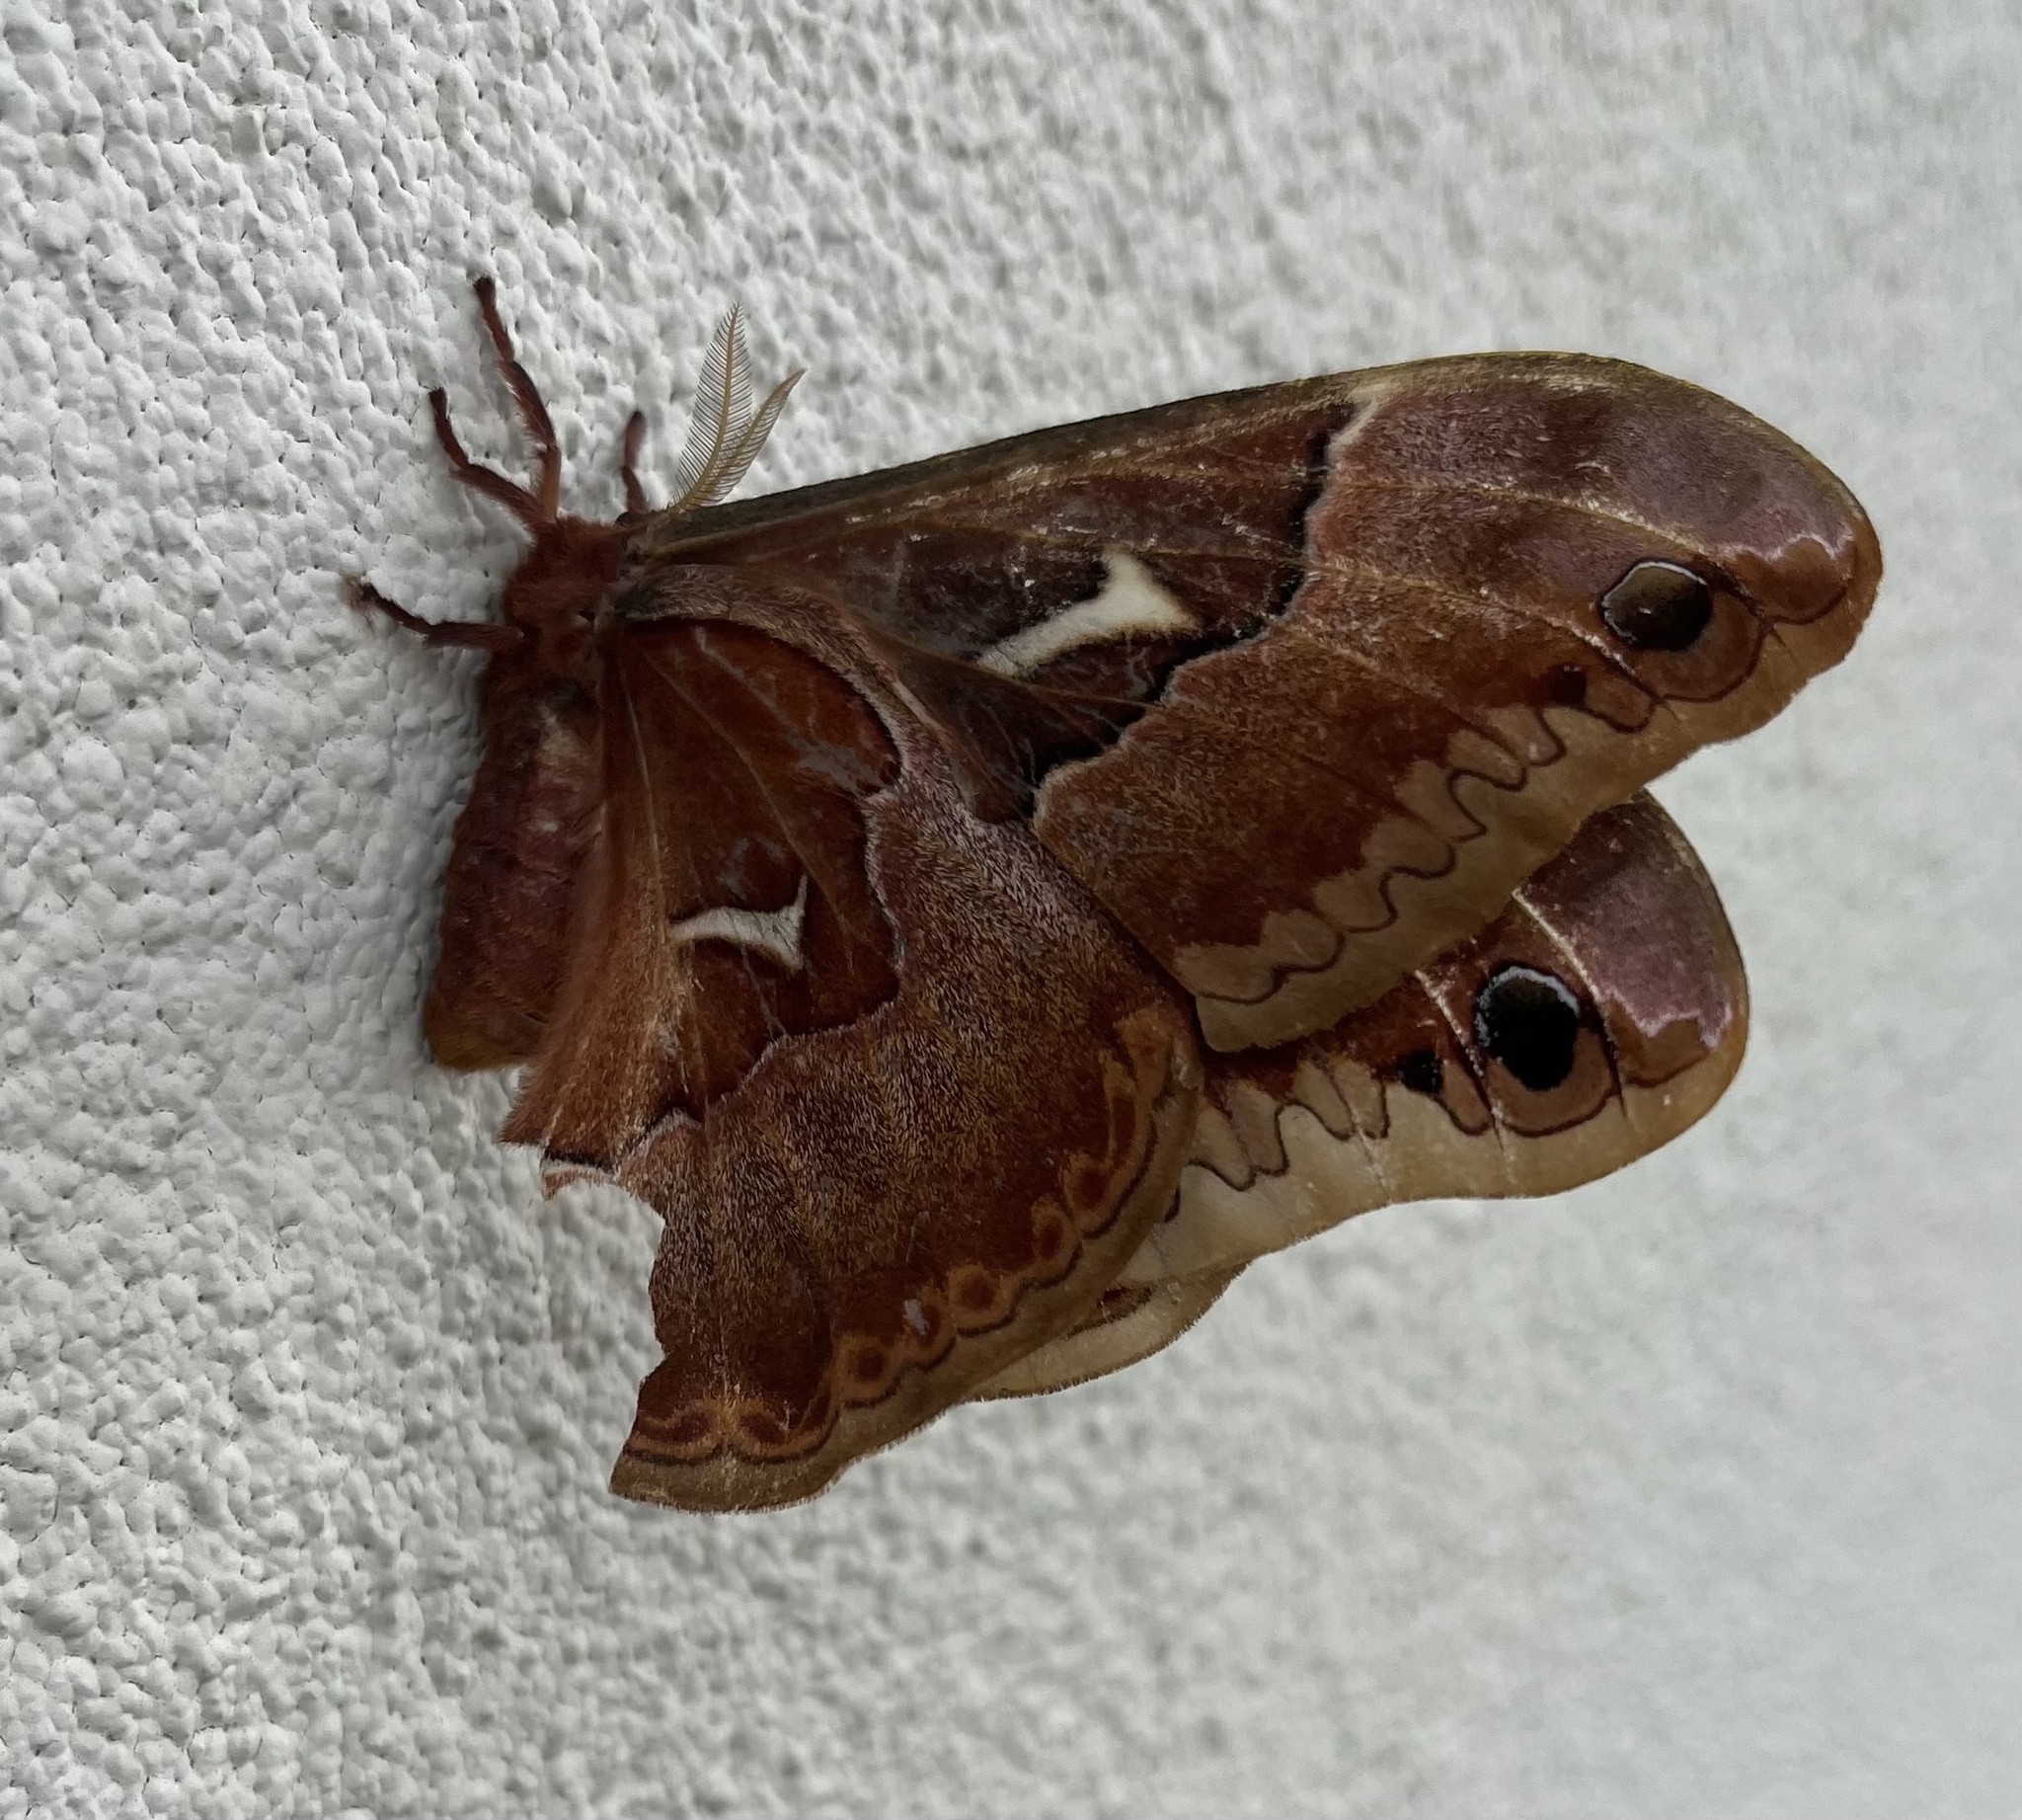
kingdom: Animalia
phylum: Arthropoda
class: Insecta
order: Lepidoptera
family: Saturniidae
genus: Callosamia
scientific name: Callosamia angulifera
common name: Tulip tree silkmoth
